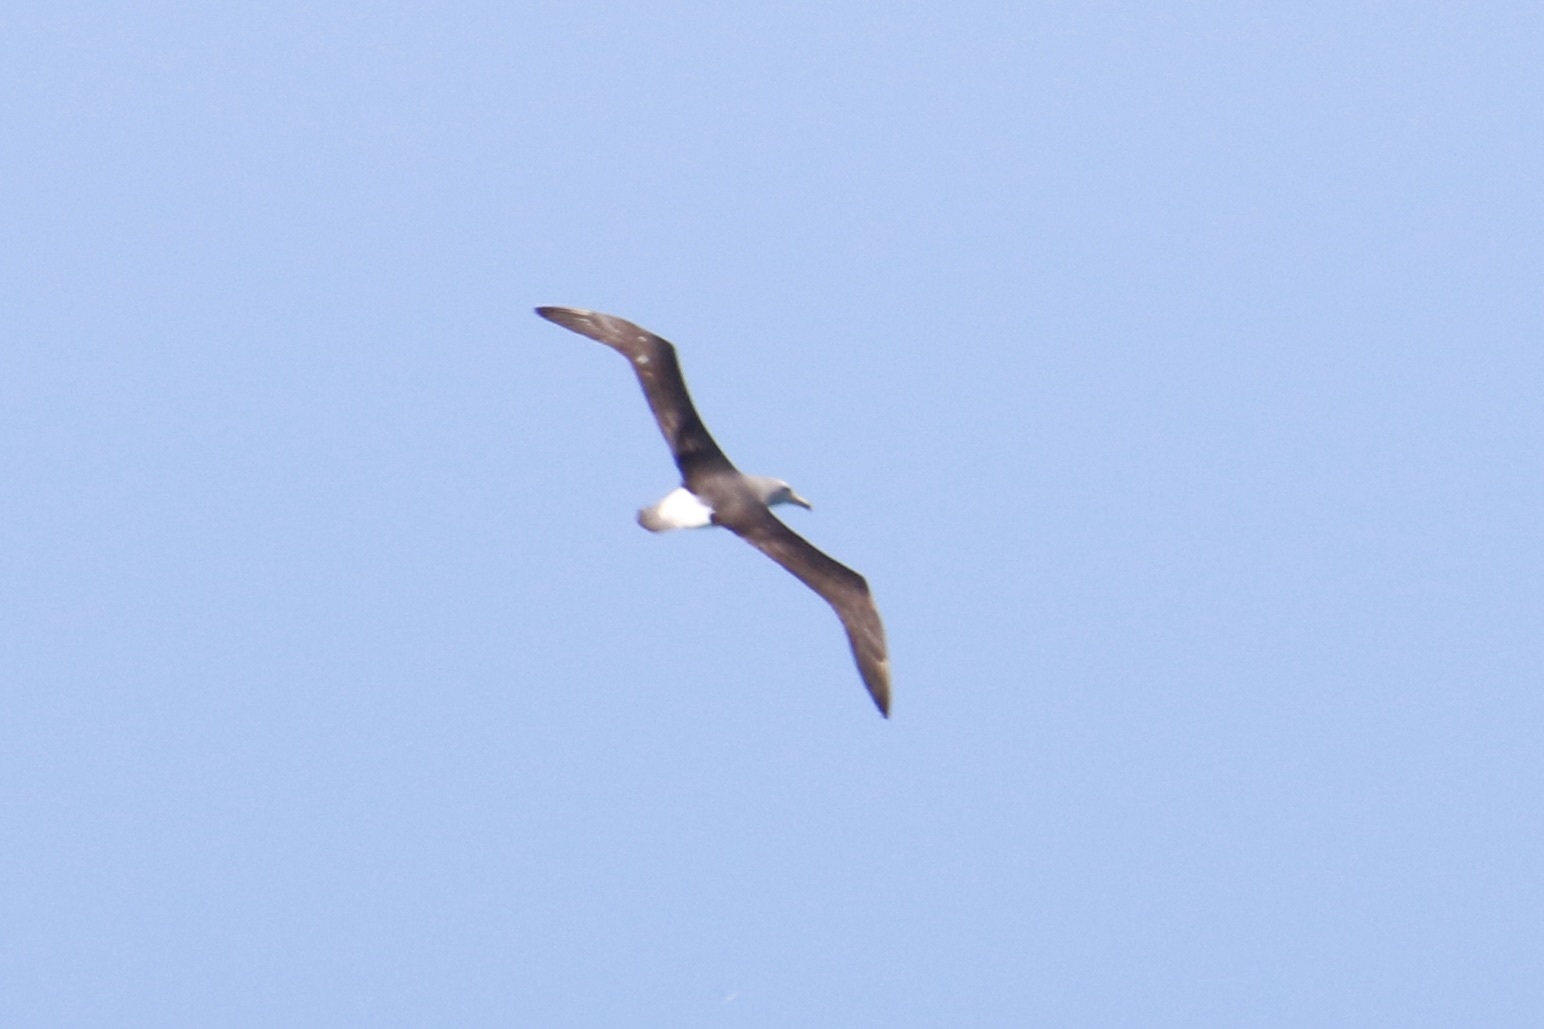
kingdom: Animalia
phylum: Chordata
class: Aves
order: Procellariiformes
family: Diomedeidae
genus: Thalassarche
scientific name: Thalassarche salvini
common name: Salvin's albatross
